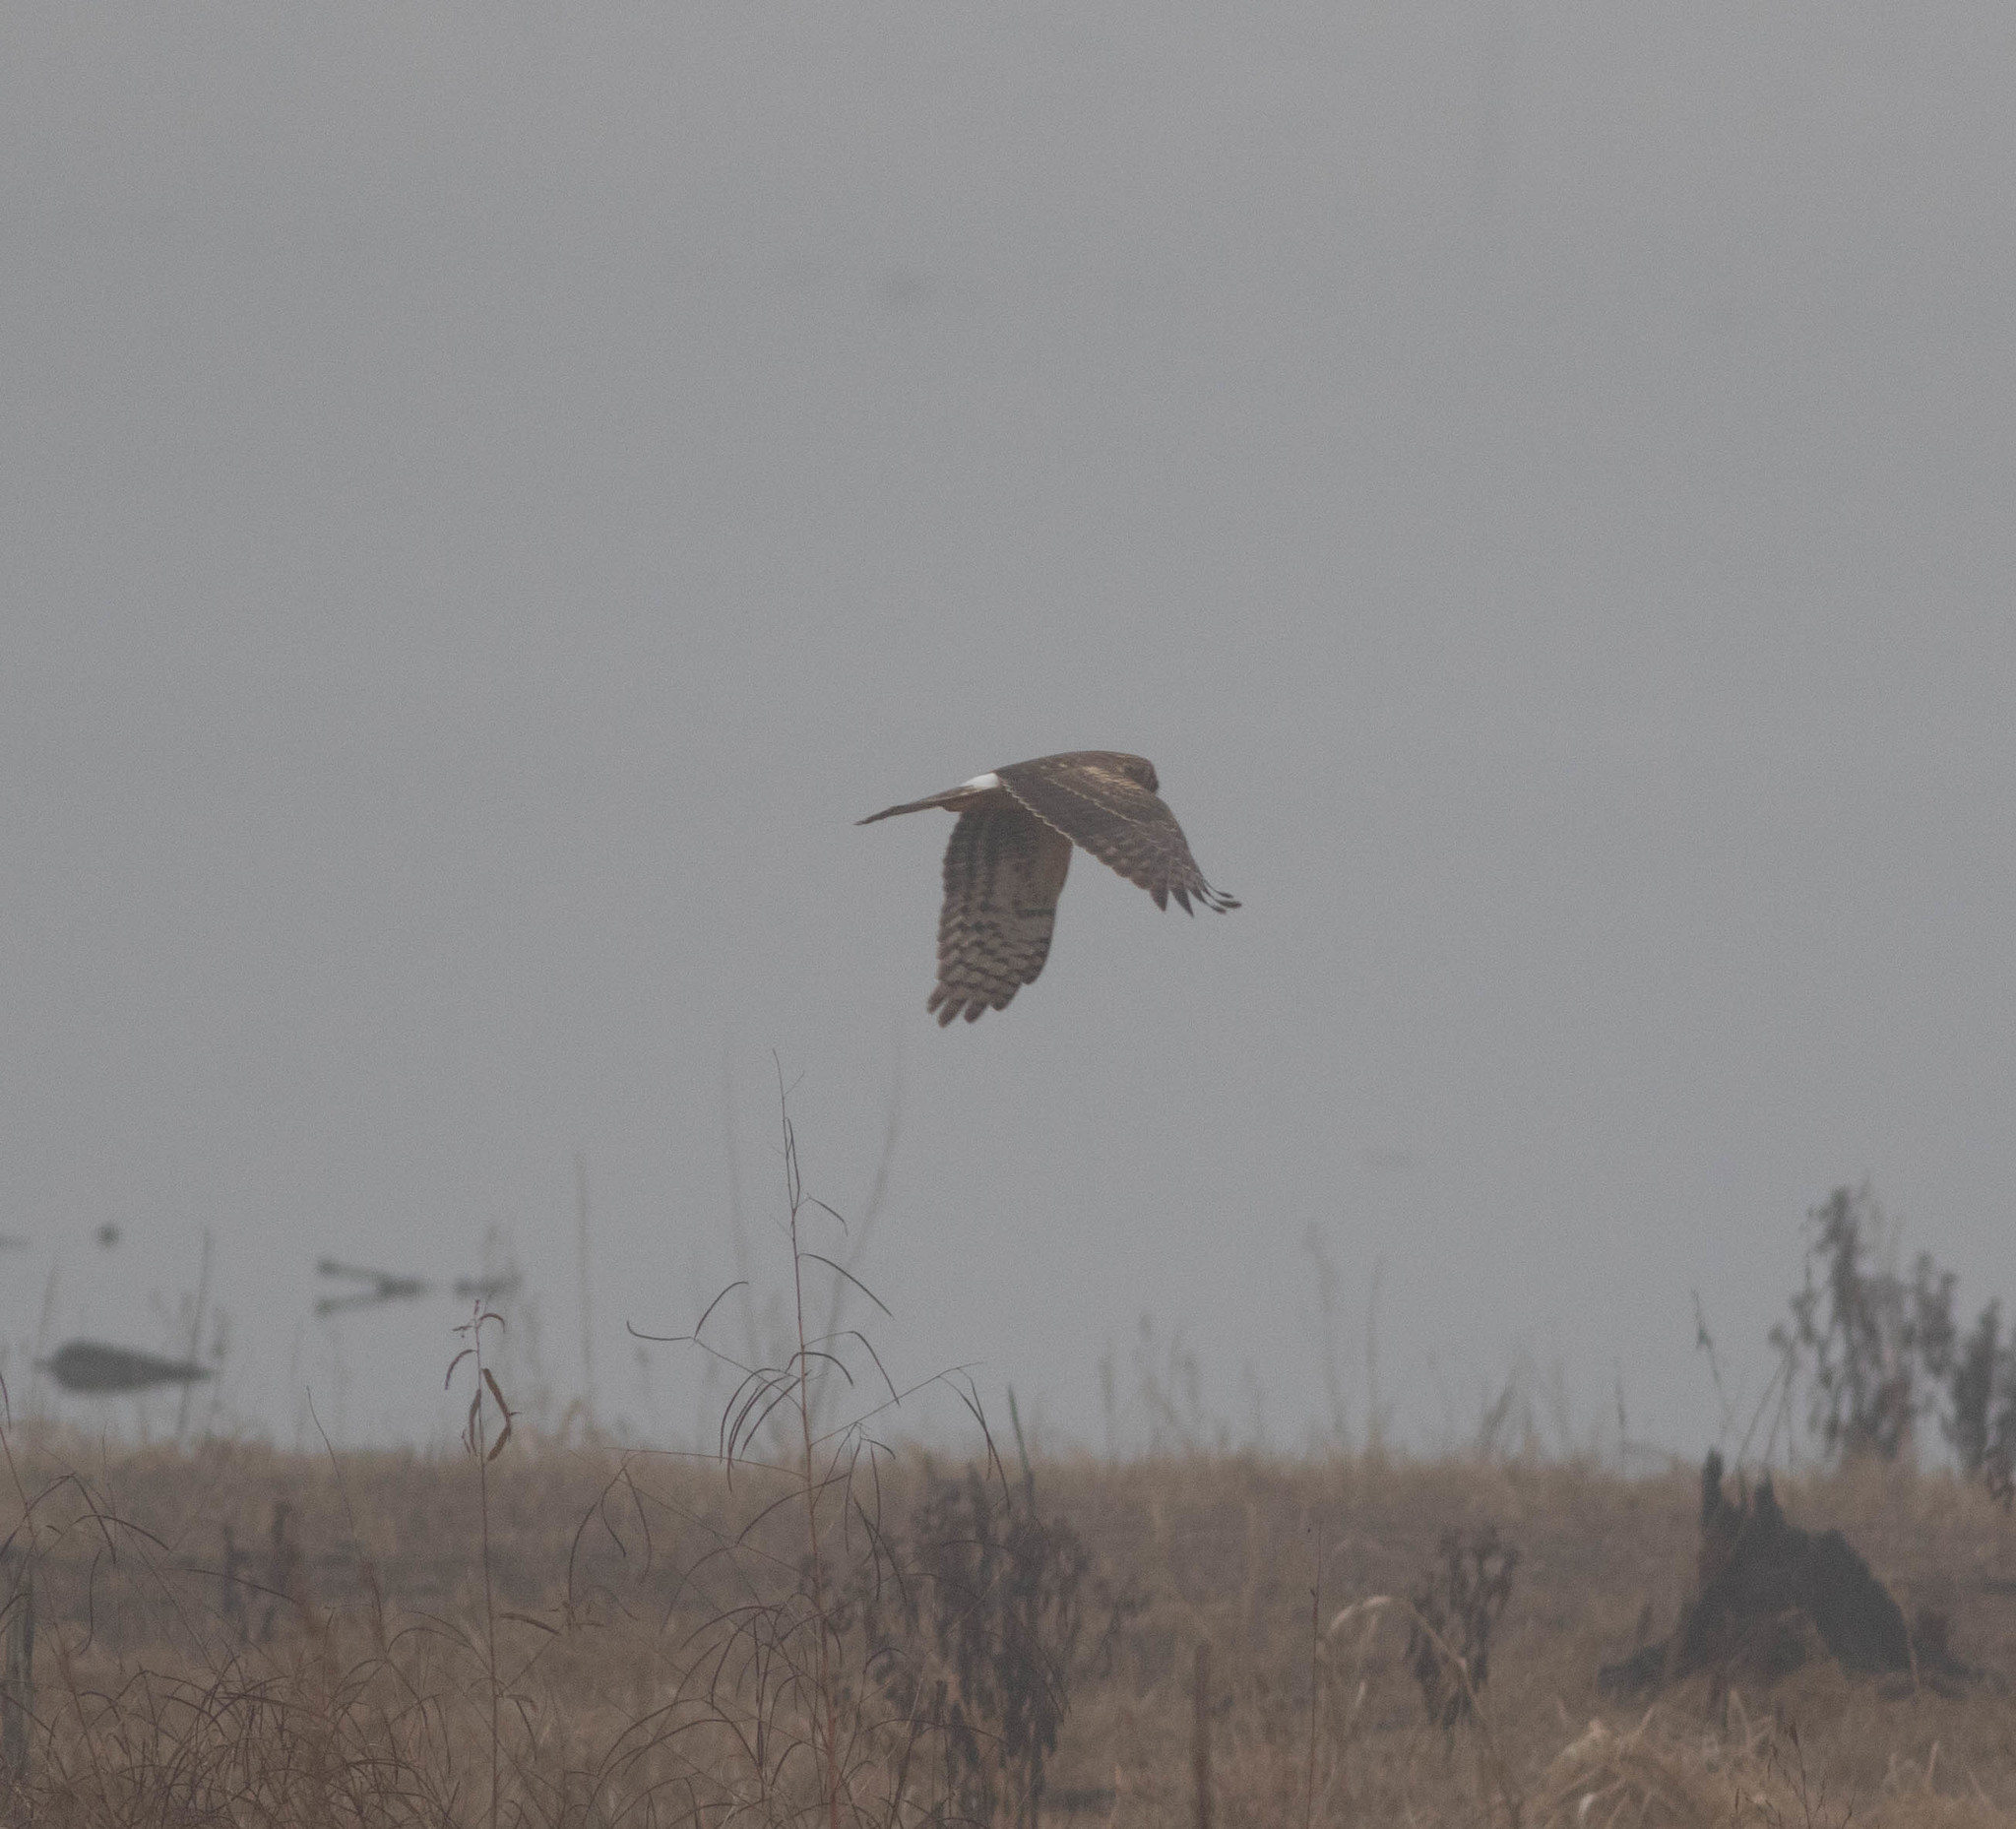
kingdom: Animalia
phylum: Chordata
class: Aves
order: Accipitriformes
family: Accipitridae
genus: Circus
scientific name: Circus cyaneus
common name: Hen harrier
